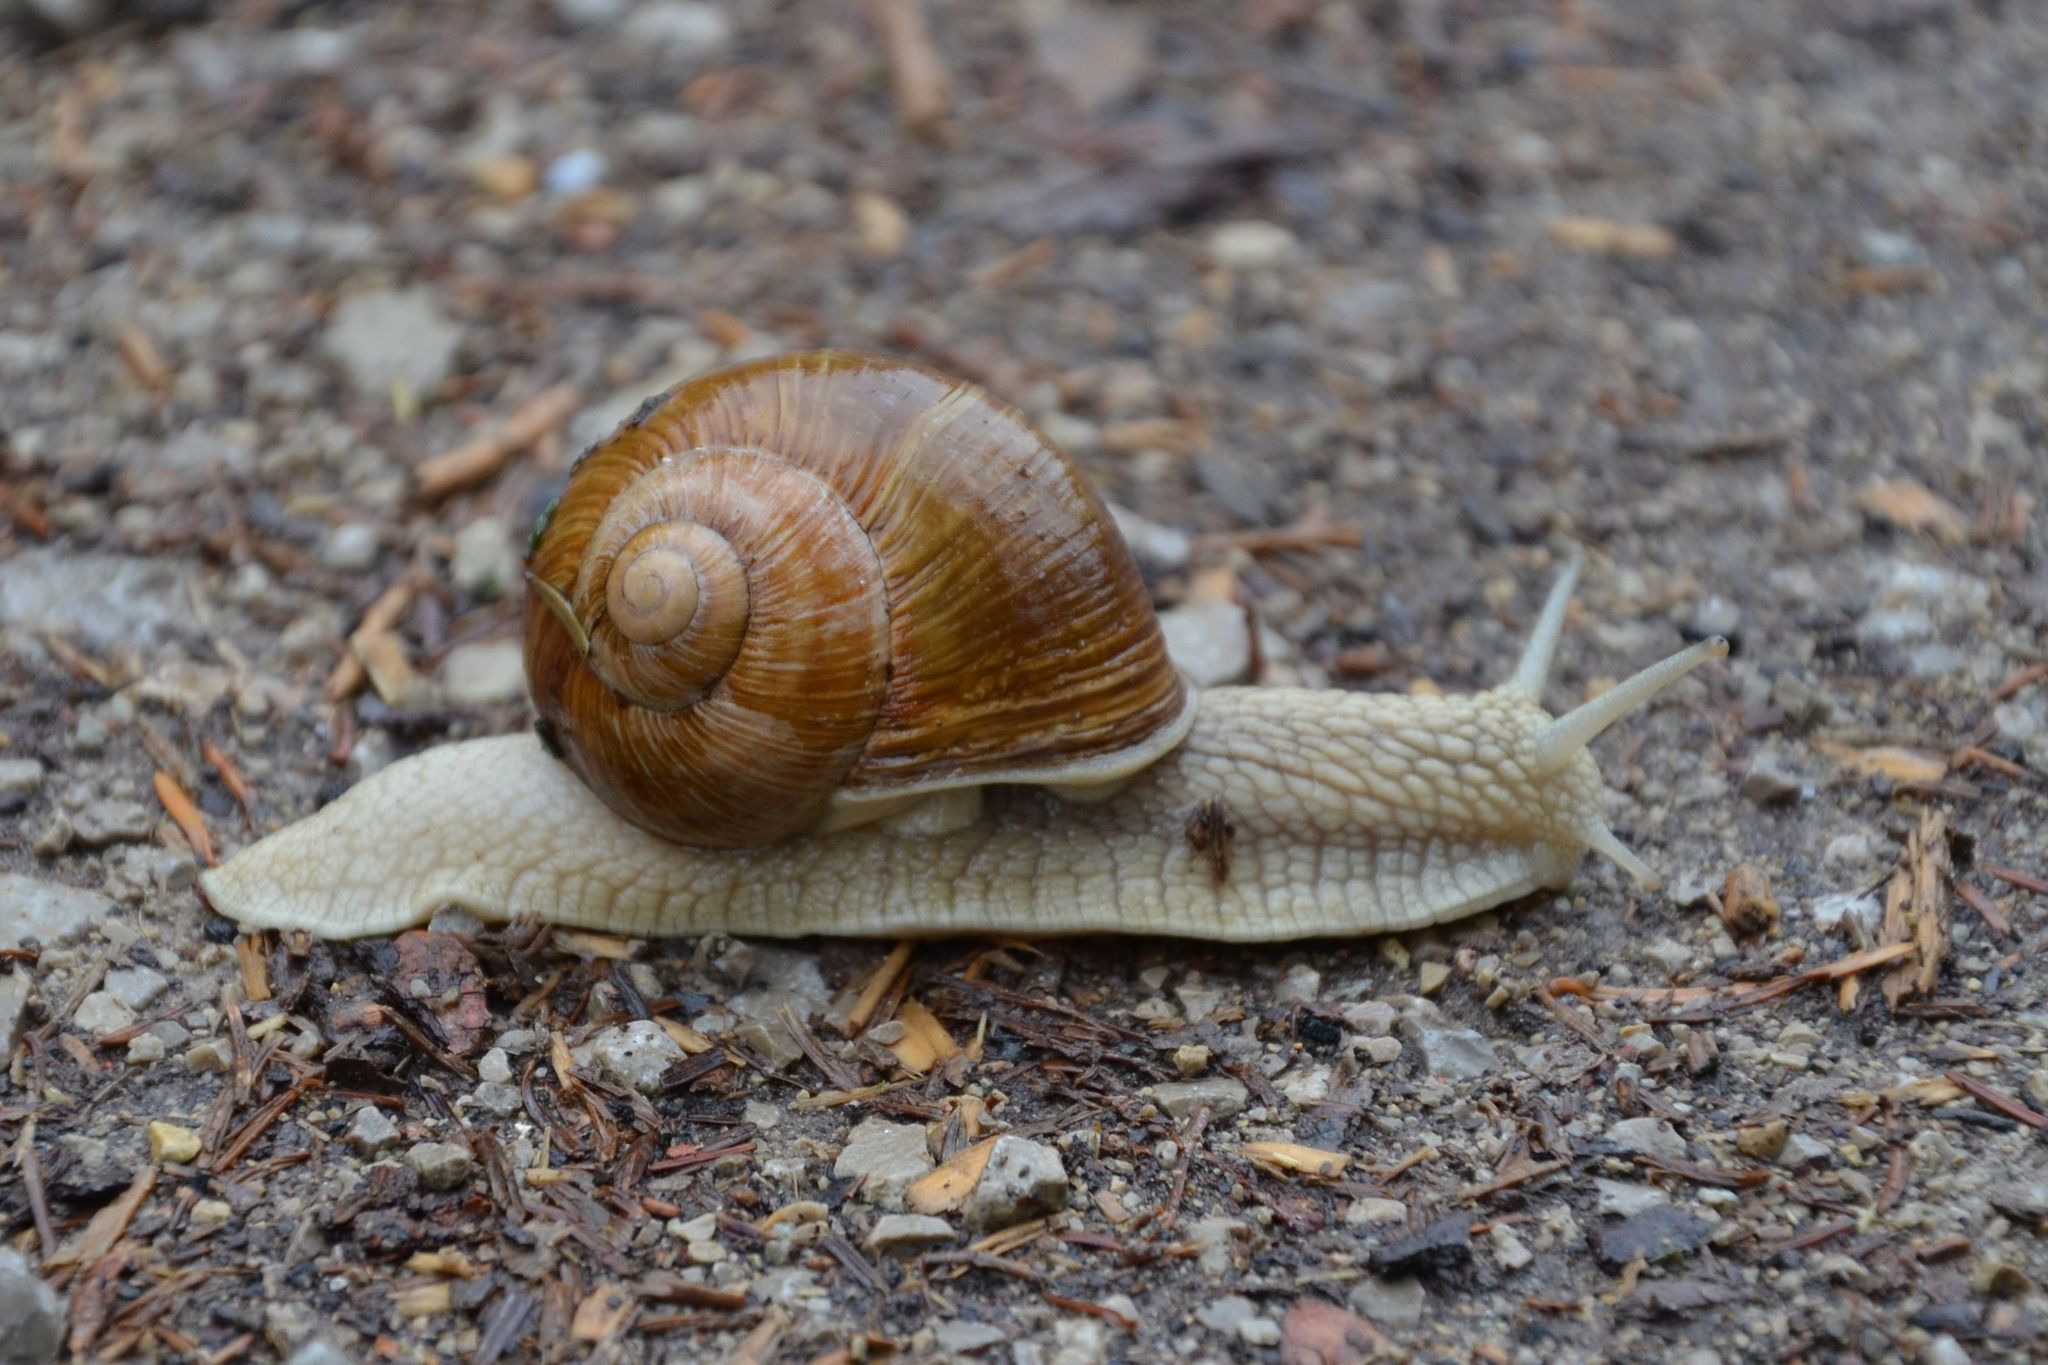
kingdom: Animalia
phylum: Mollusca
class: Gastropoda
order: Stylommatophora
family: Helicidae
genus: Helix
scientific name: Helix pomatia
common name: Roman snail
